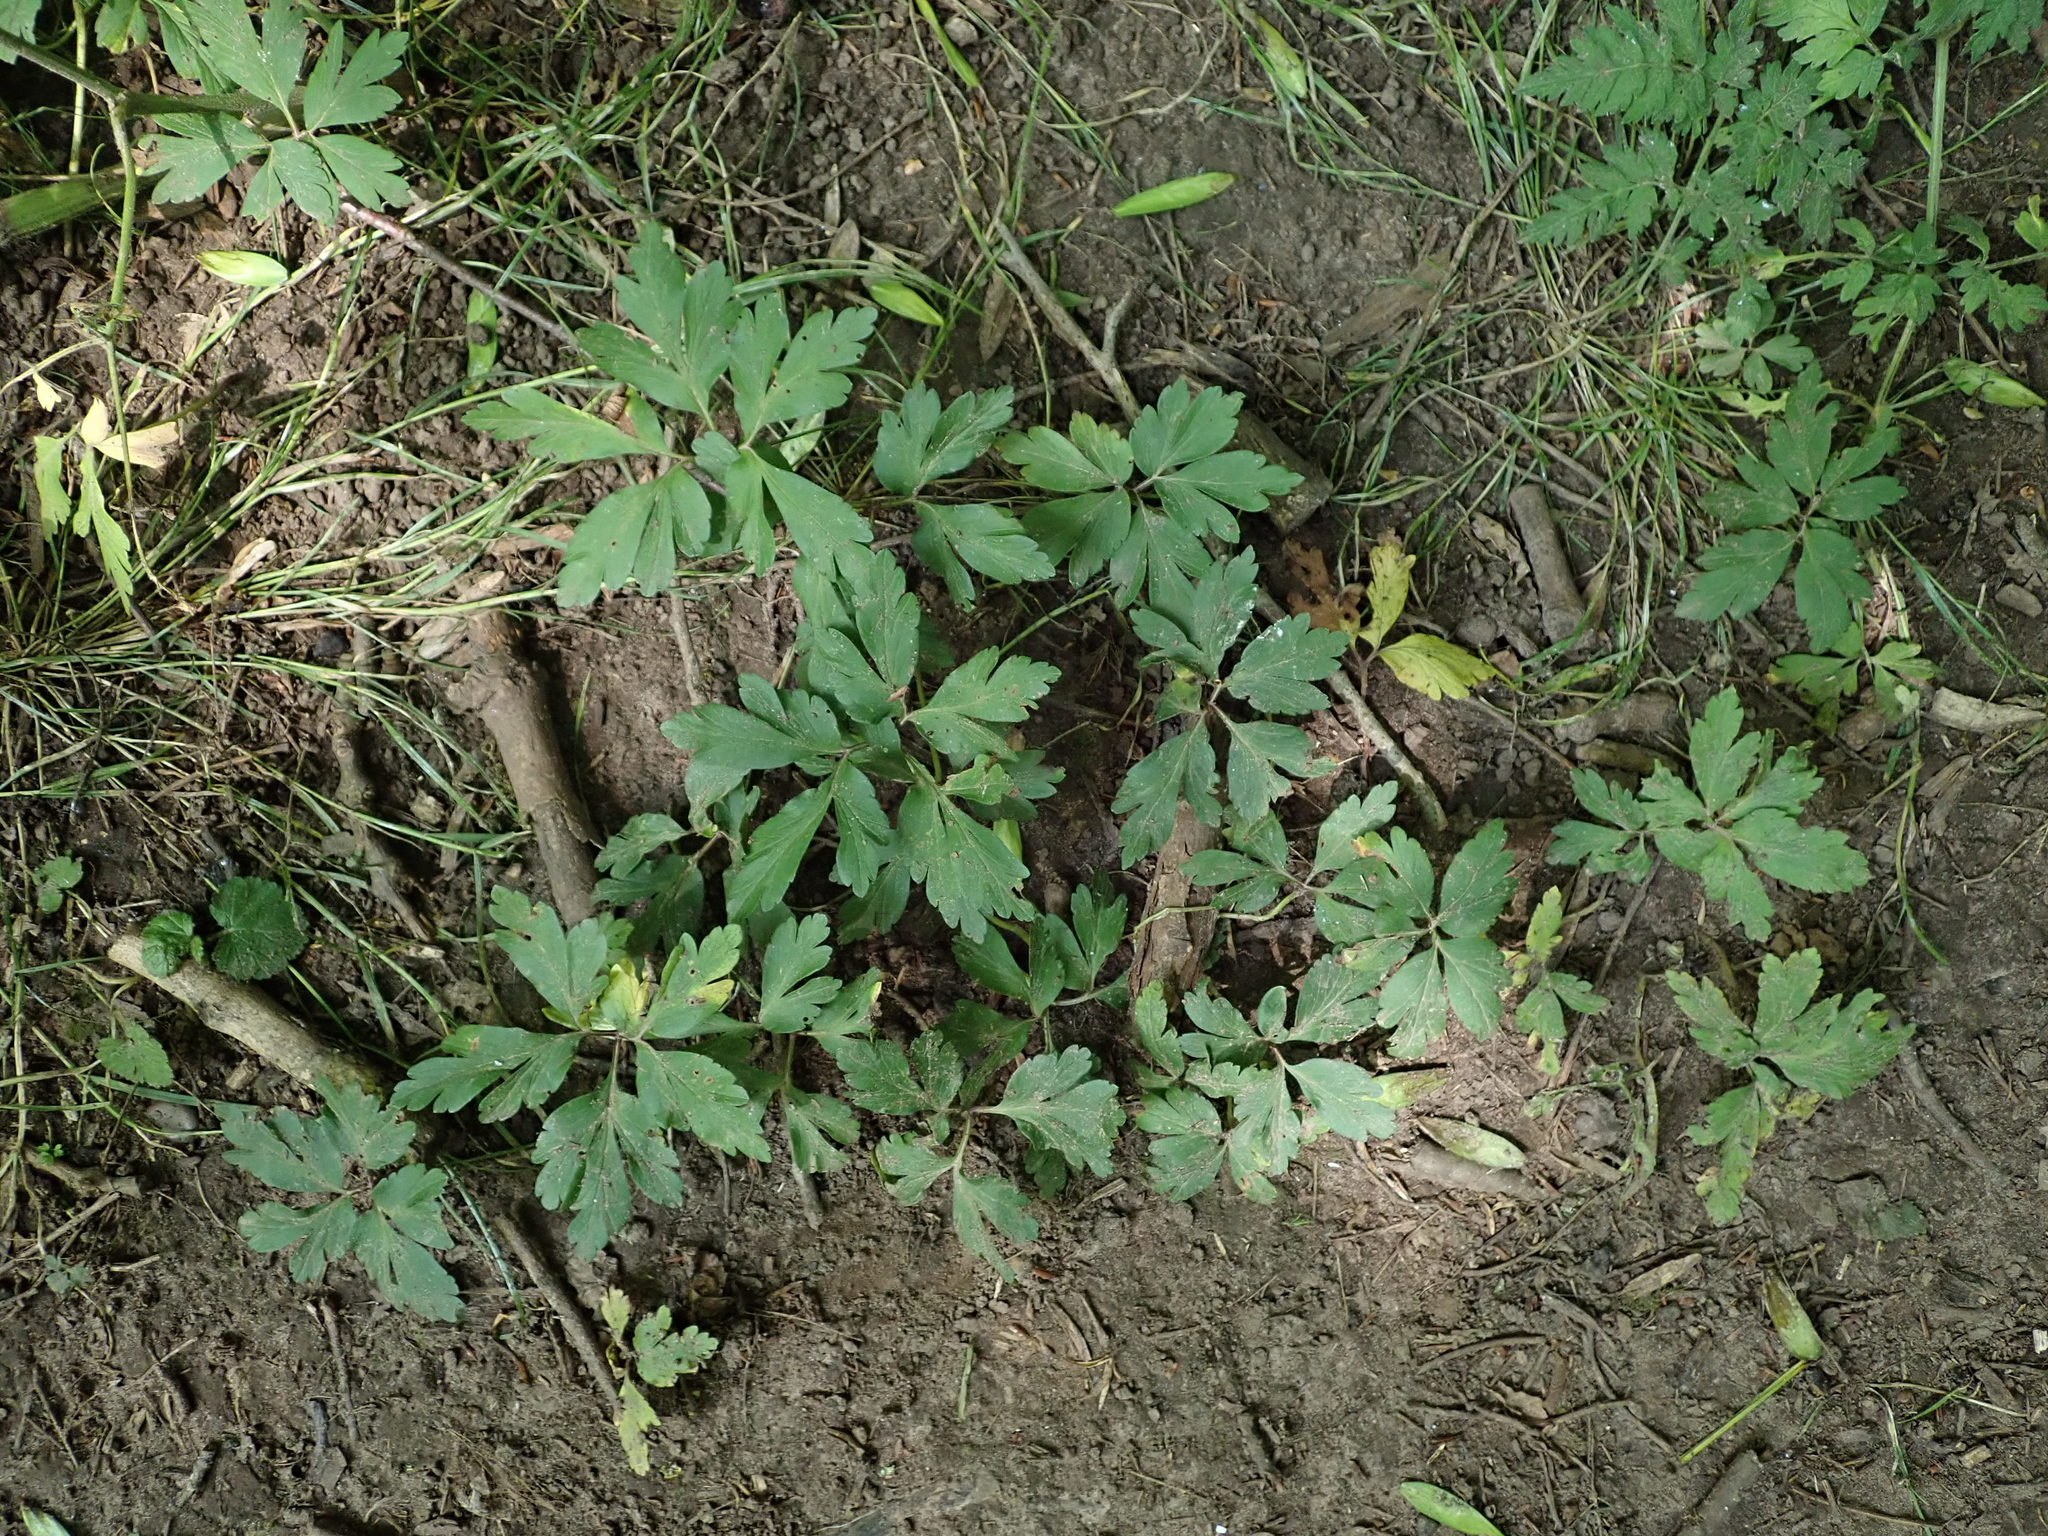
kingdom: Plantae
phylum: Tracheophyta
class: Magnoliopsida
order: Ranunculales
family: Ranunculaceae
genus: Anemone
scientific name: Anemone nemorosa
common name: Wood anemone
